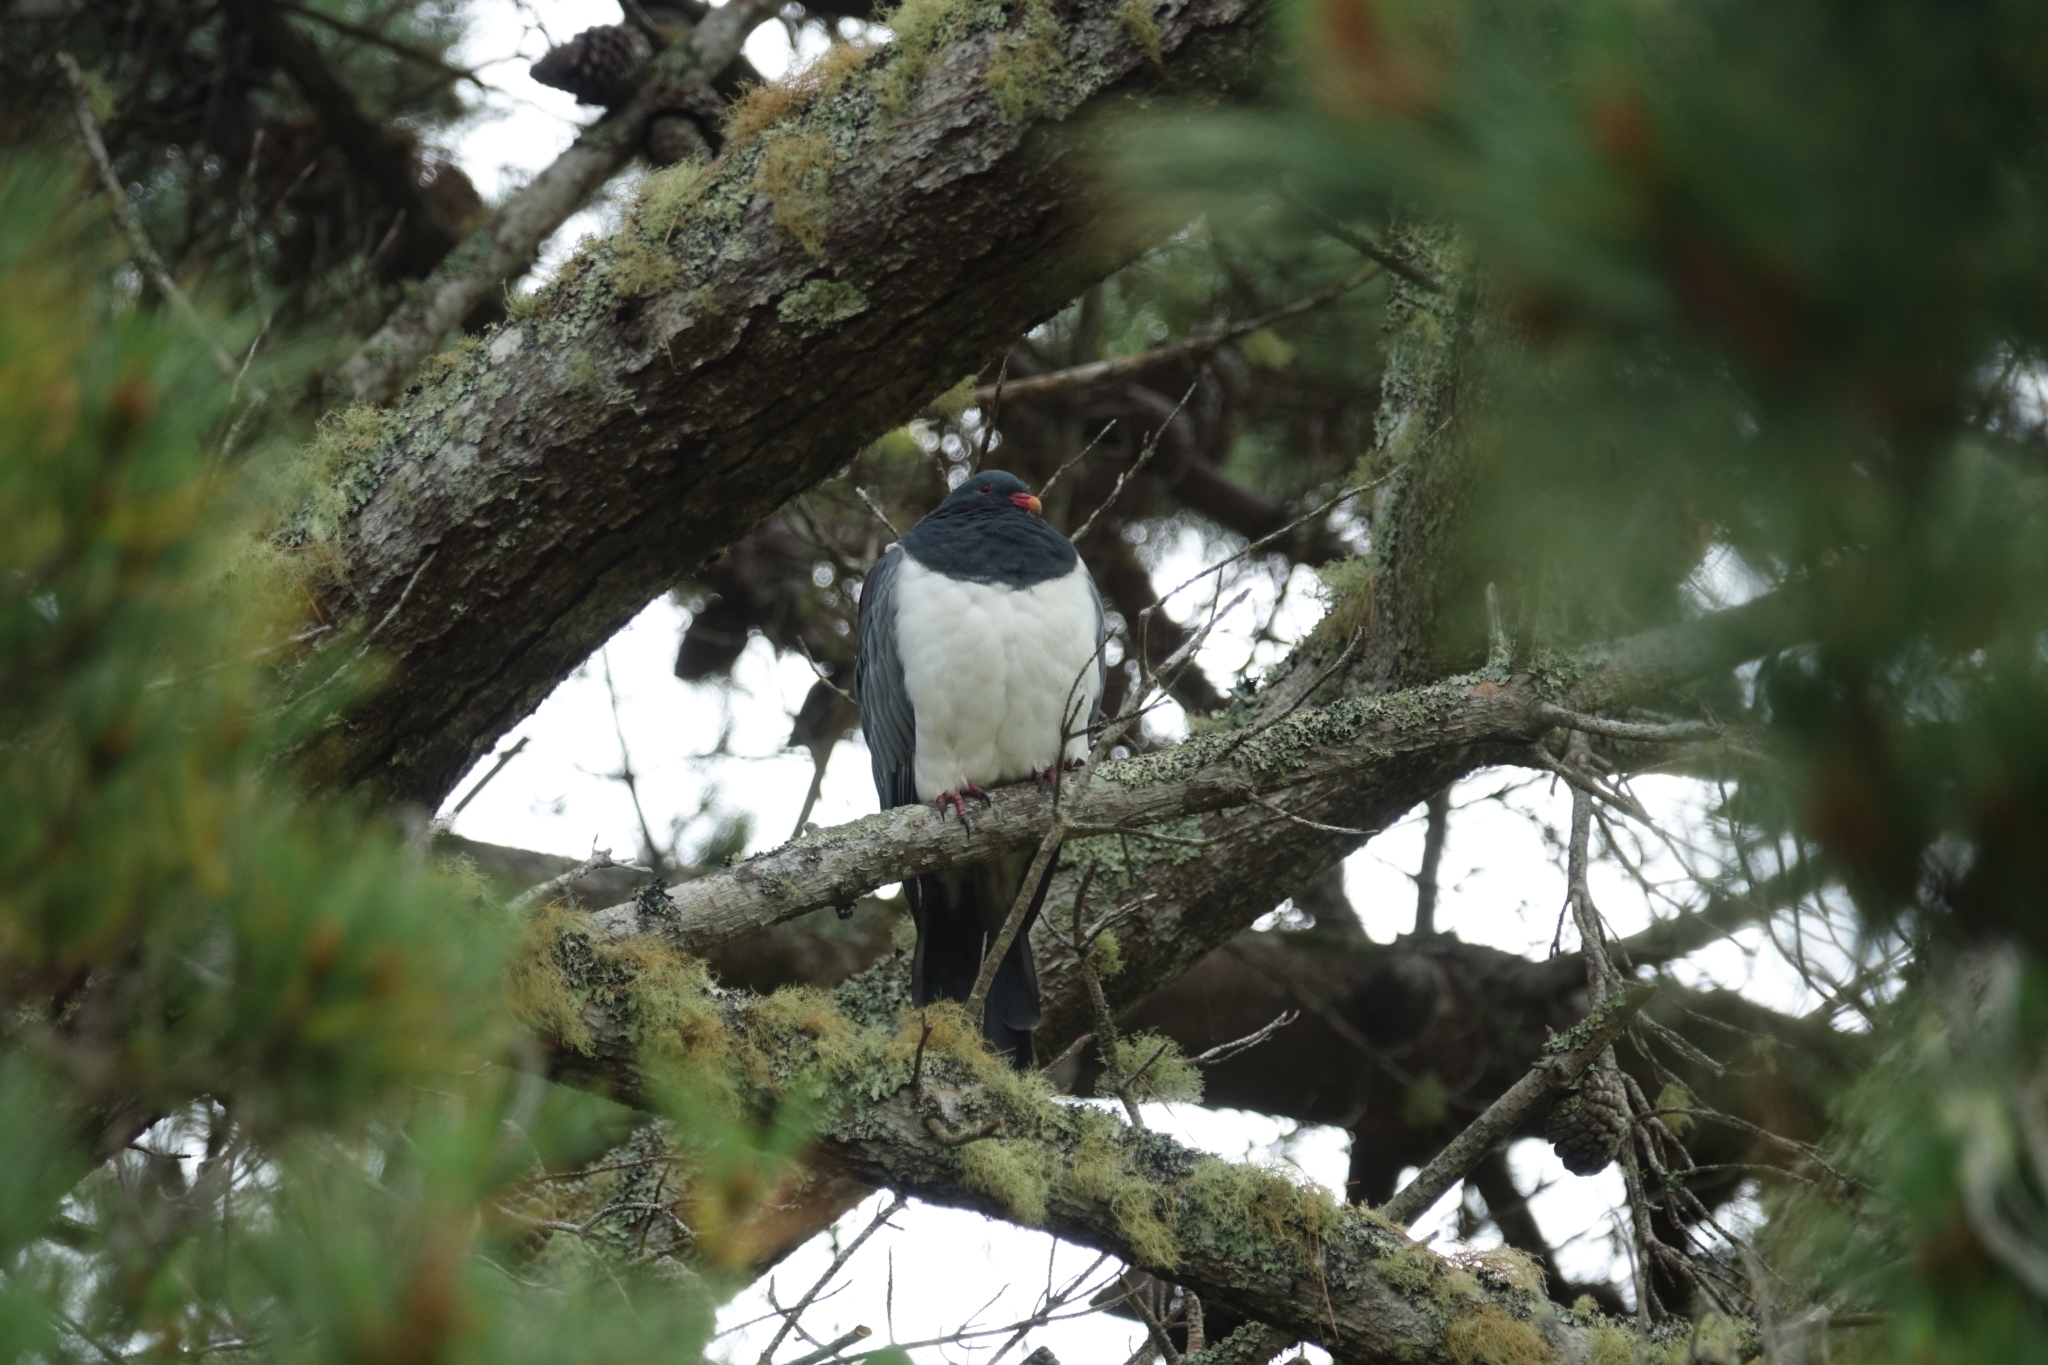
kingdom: Animalia
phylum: Chordata
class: Aves
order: Columbiformes
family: Columbidae
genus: Hemiphaga
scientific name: Hemiphaga chathamensis
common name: Chatham pigeon
